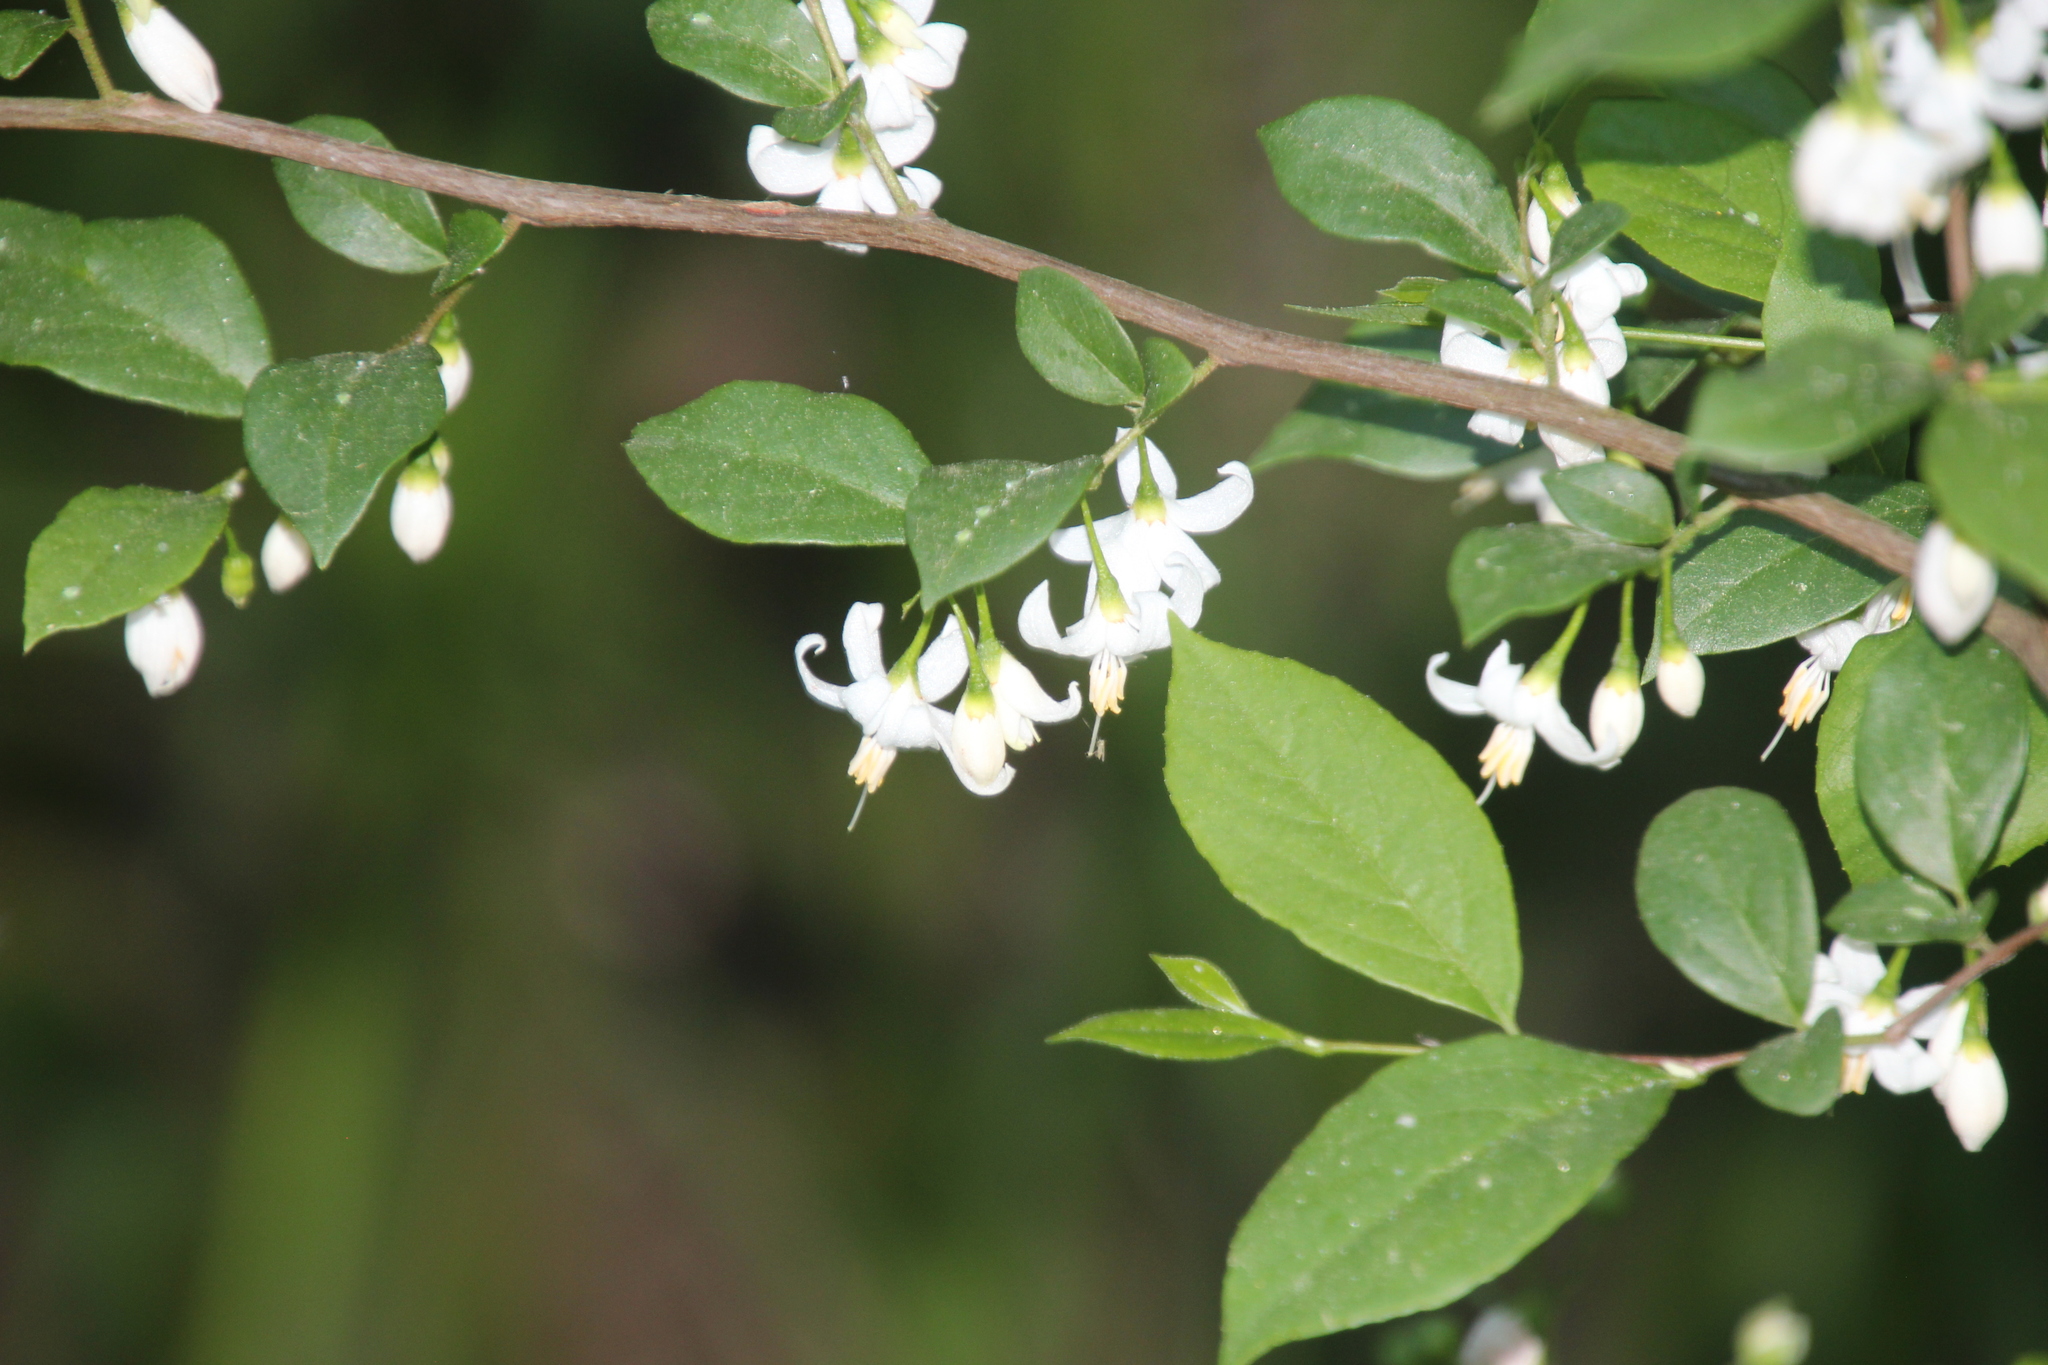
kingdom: Plantae
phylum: Tracheophyta
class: Magnoliopsida
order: Ericales
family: Styracaceae
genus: Styrax
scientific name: Styrax americanus
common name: American snowbell
